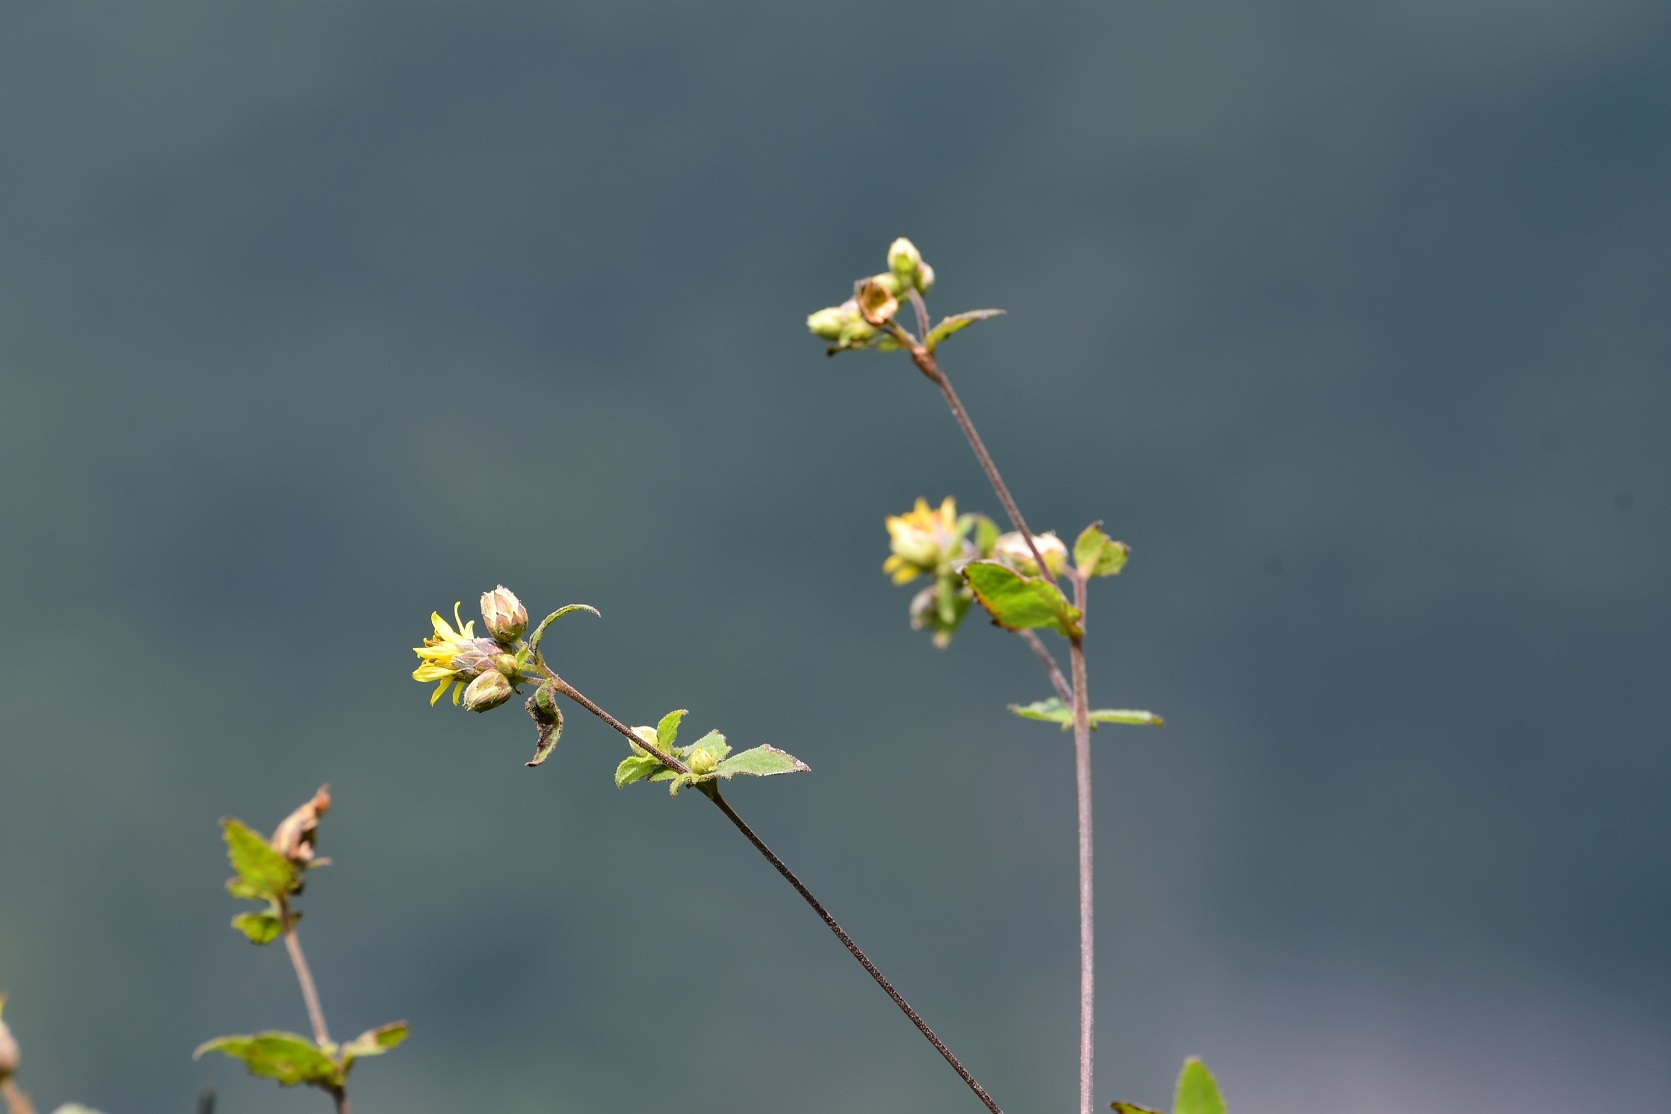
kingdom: Plantae
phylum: Tracheophyta
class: Magnoliopsida
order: Asterales
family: Asteraceae
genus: Calea
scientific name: Calea jamaicensis
